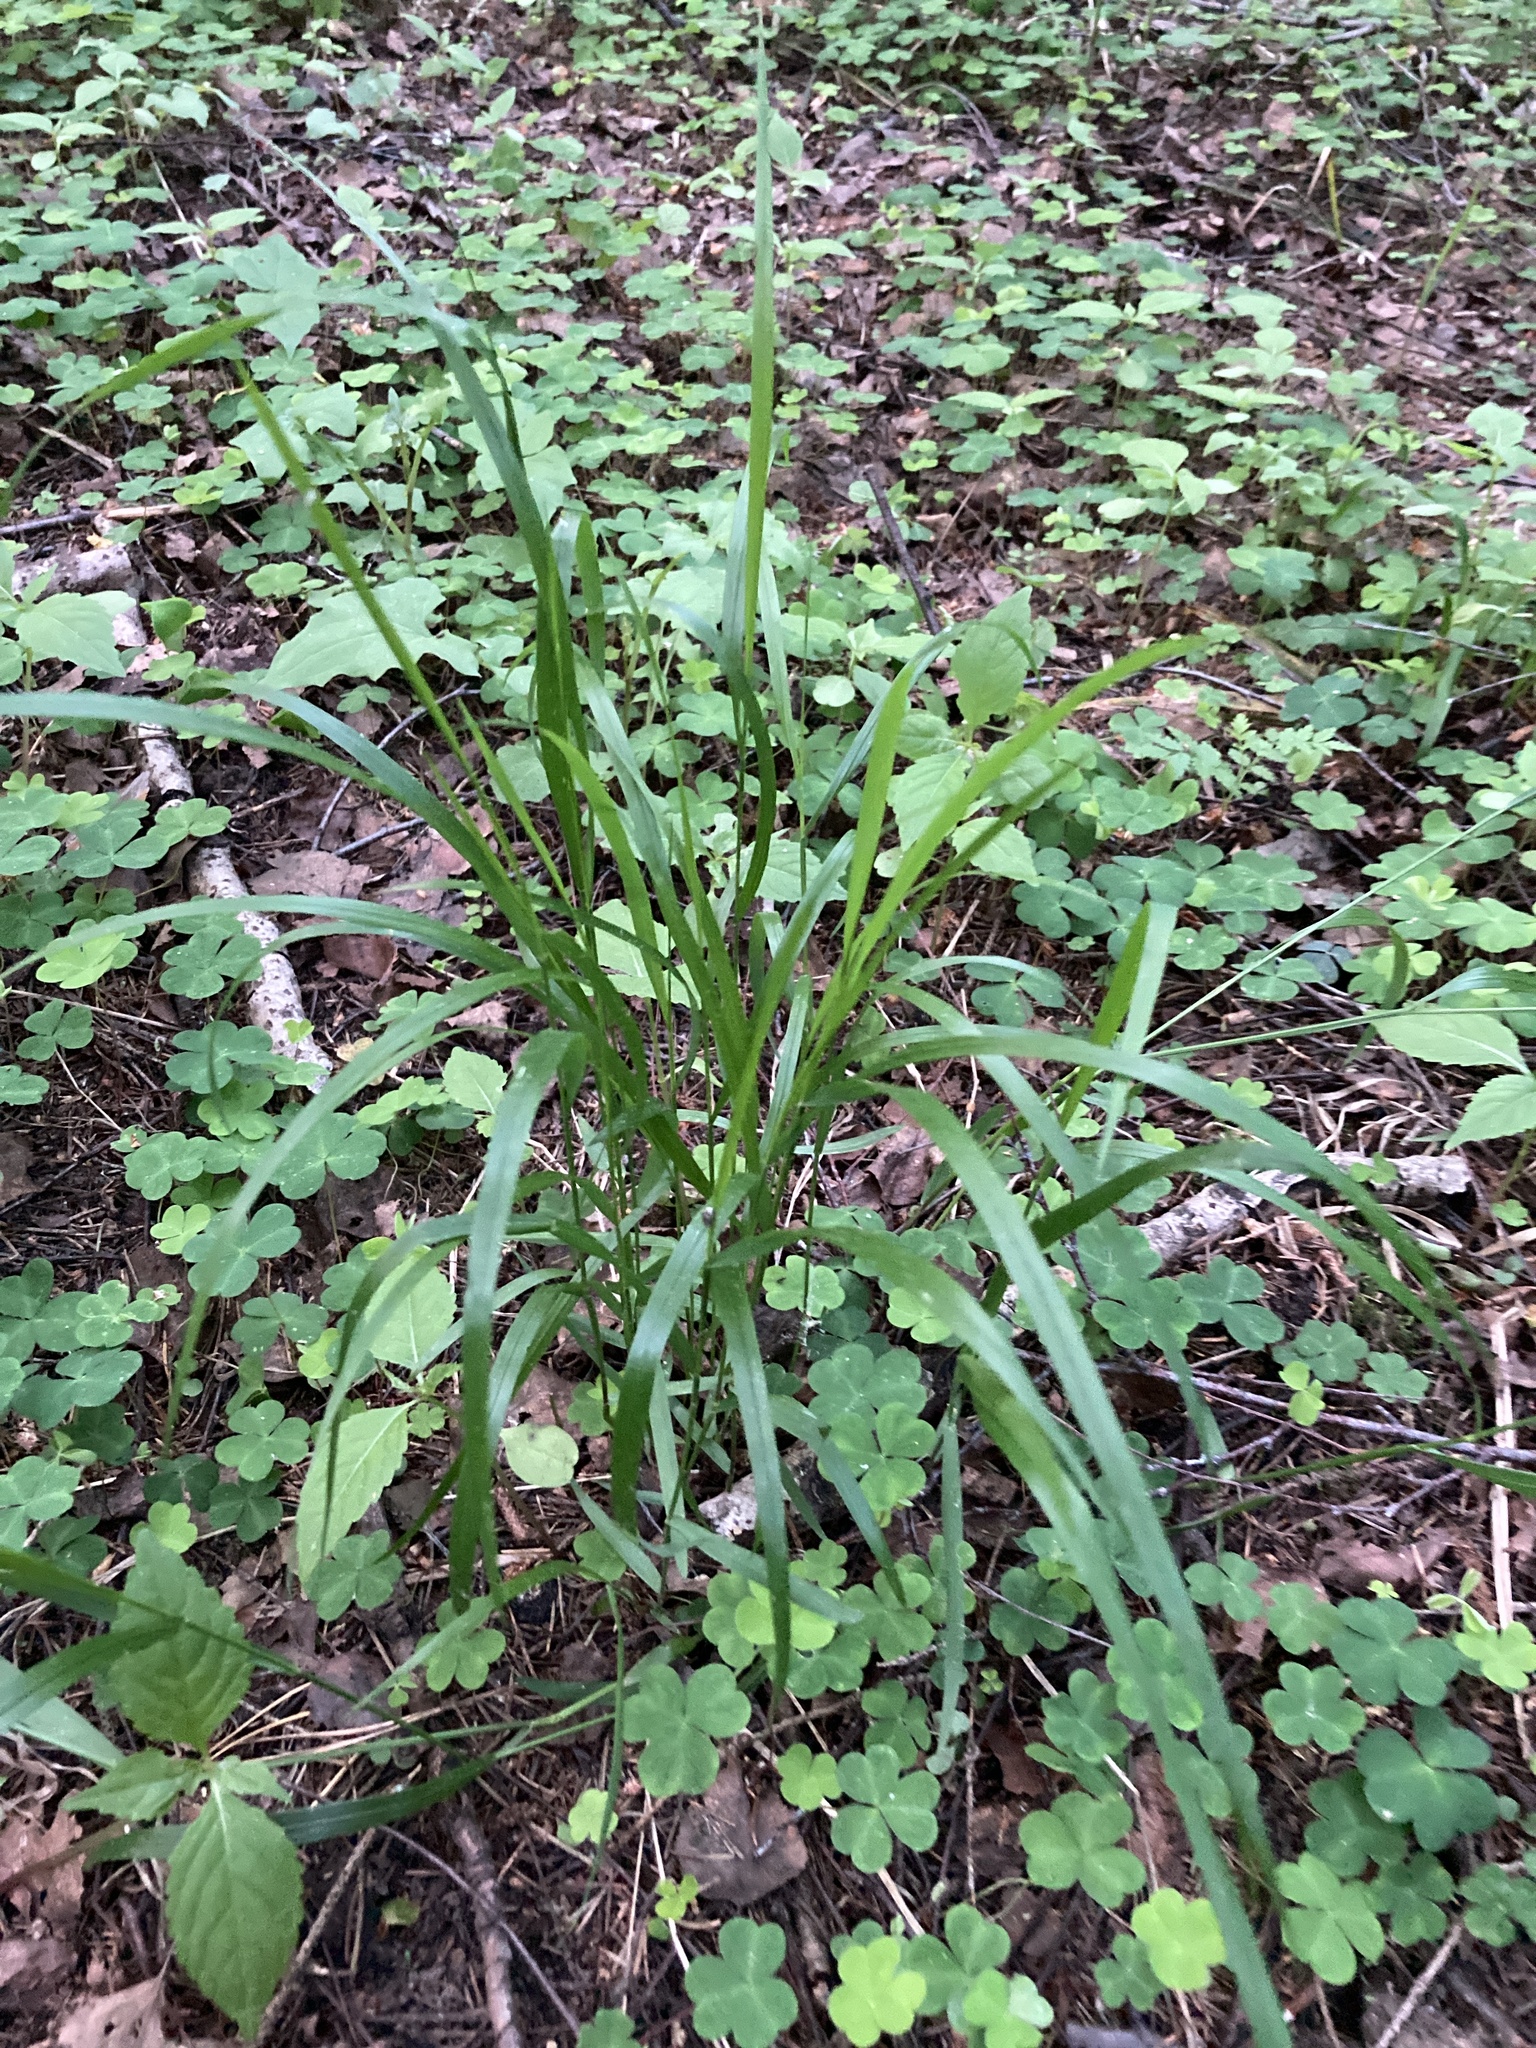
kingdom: Plantae
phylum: Tracheophyta
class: Liliopsida
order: Poales
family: Poaceae
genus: Melica
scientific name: Melica nutans
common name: Mountain melick
